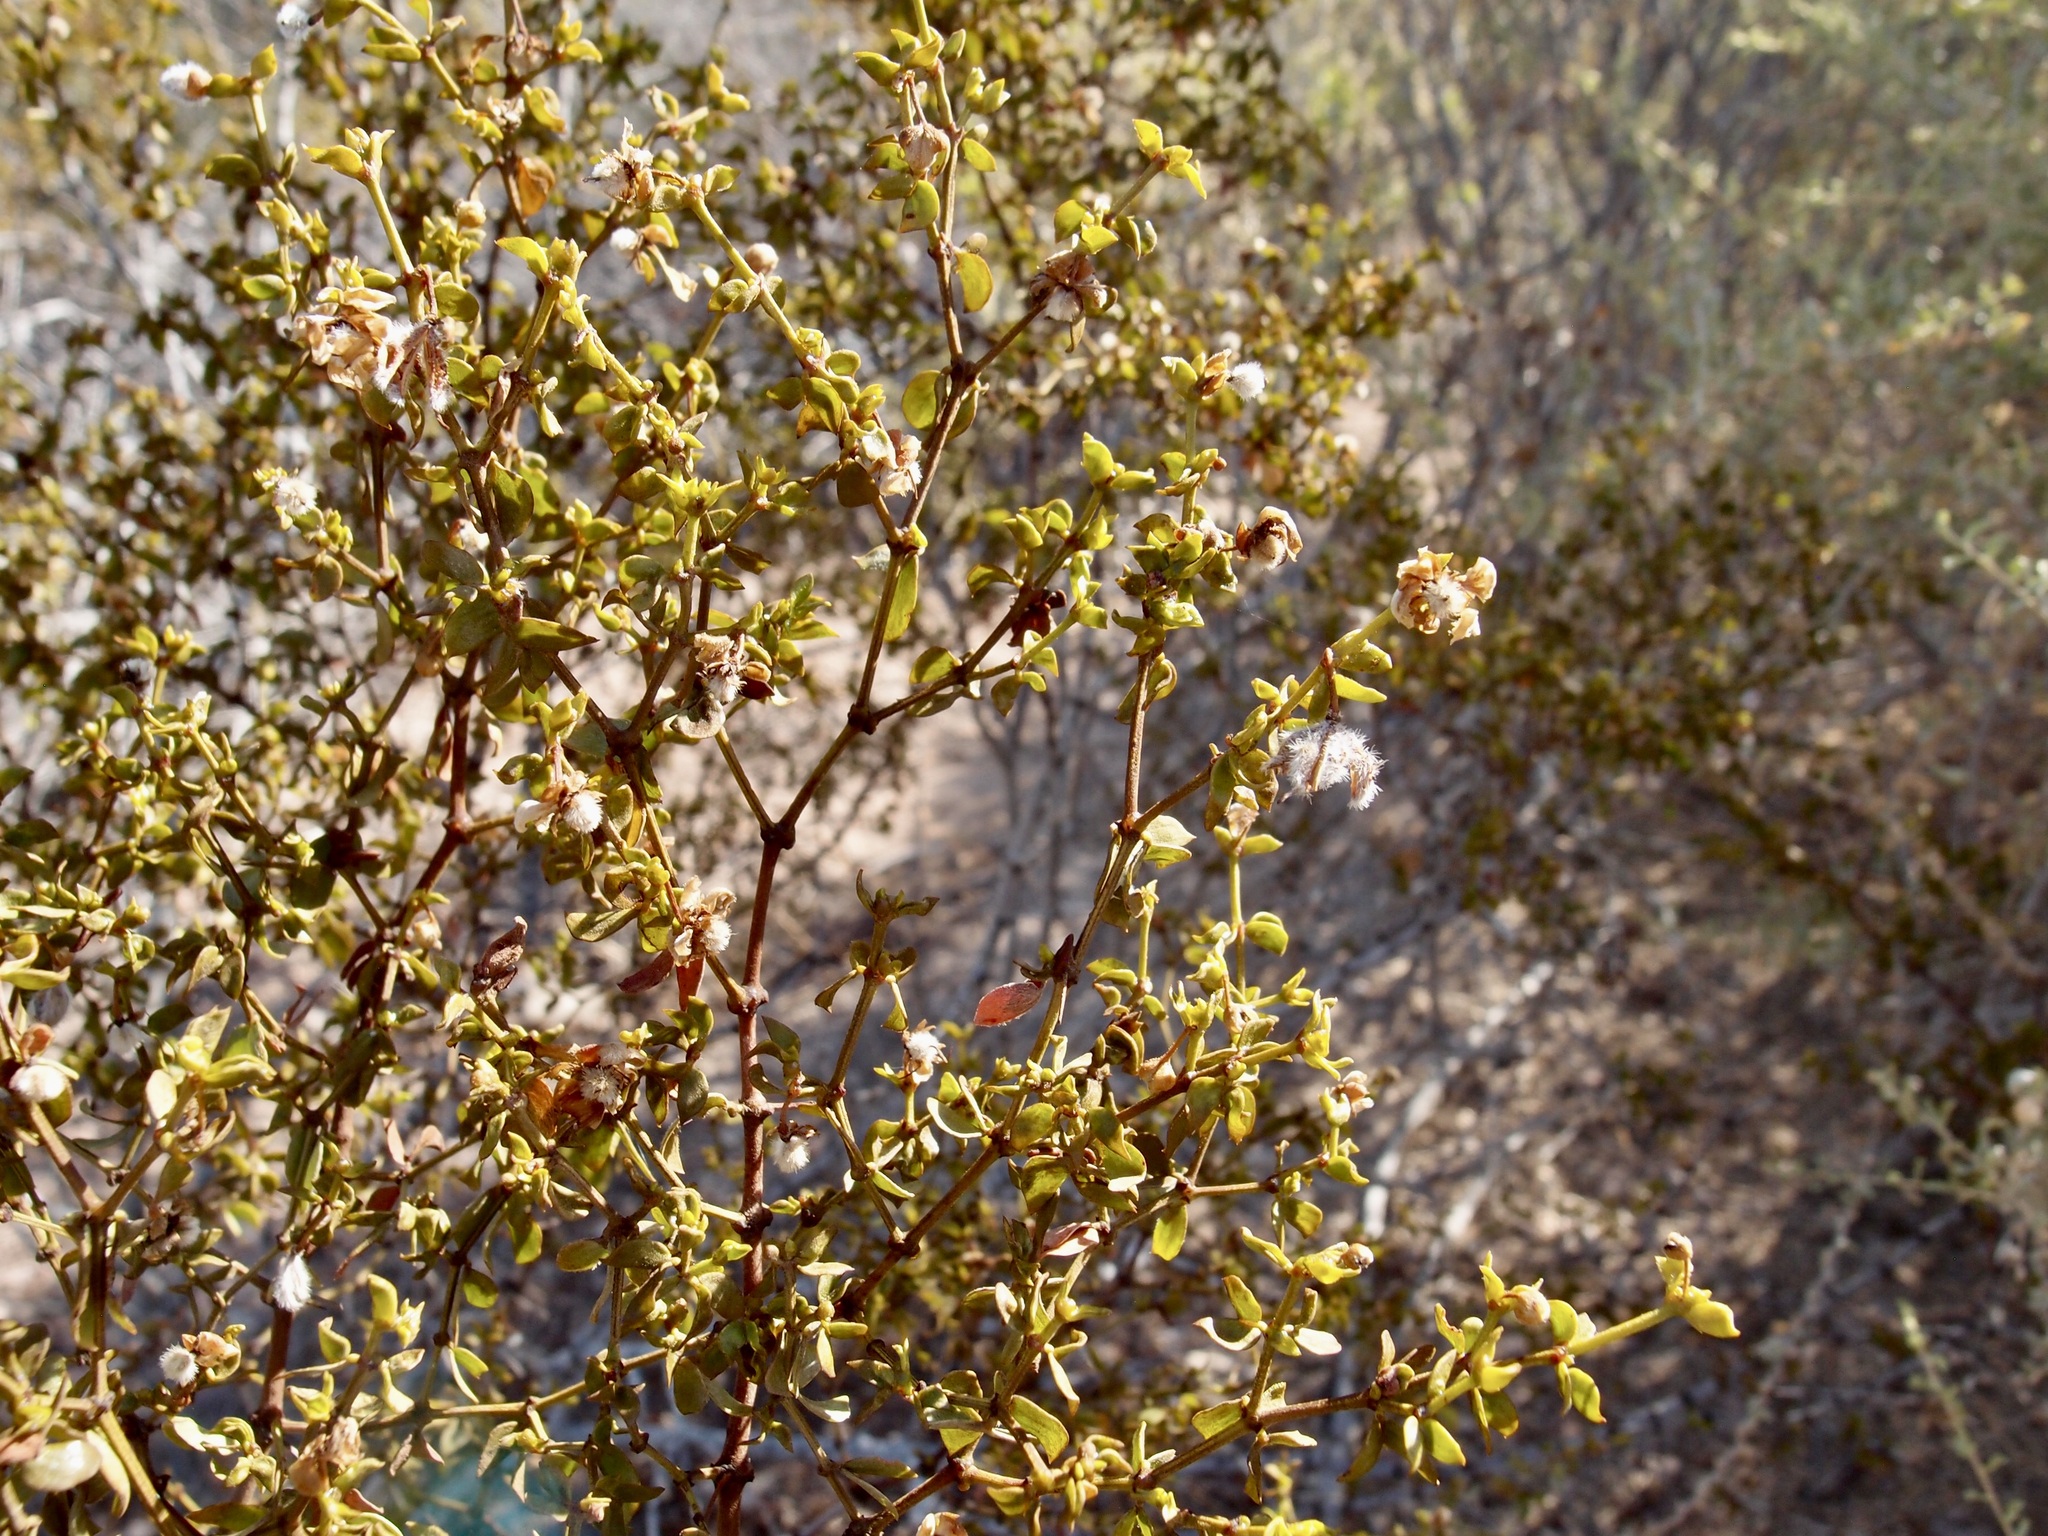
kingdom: Plantae
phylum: Tracheophyta
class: Magnoliopsida
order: Zygophyllales
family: Zygophyllaceae
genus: Larrea
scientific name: Larrea tridentata
